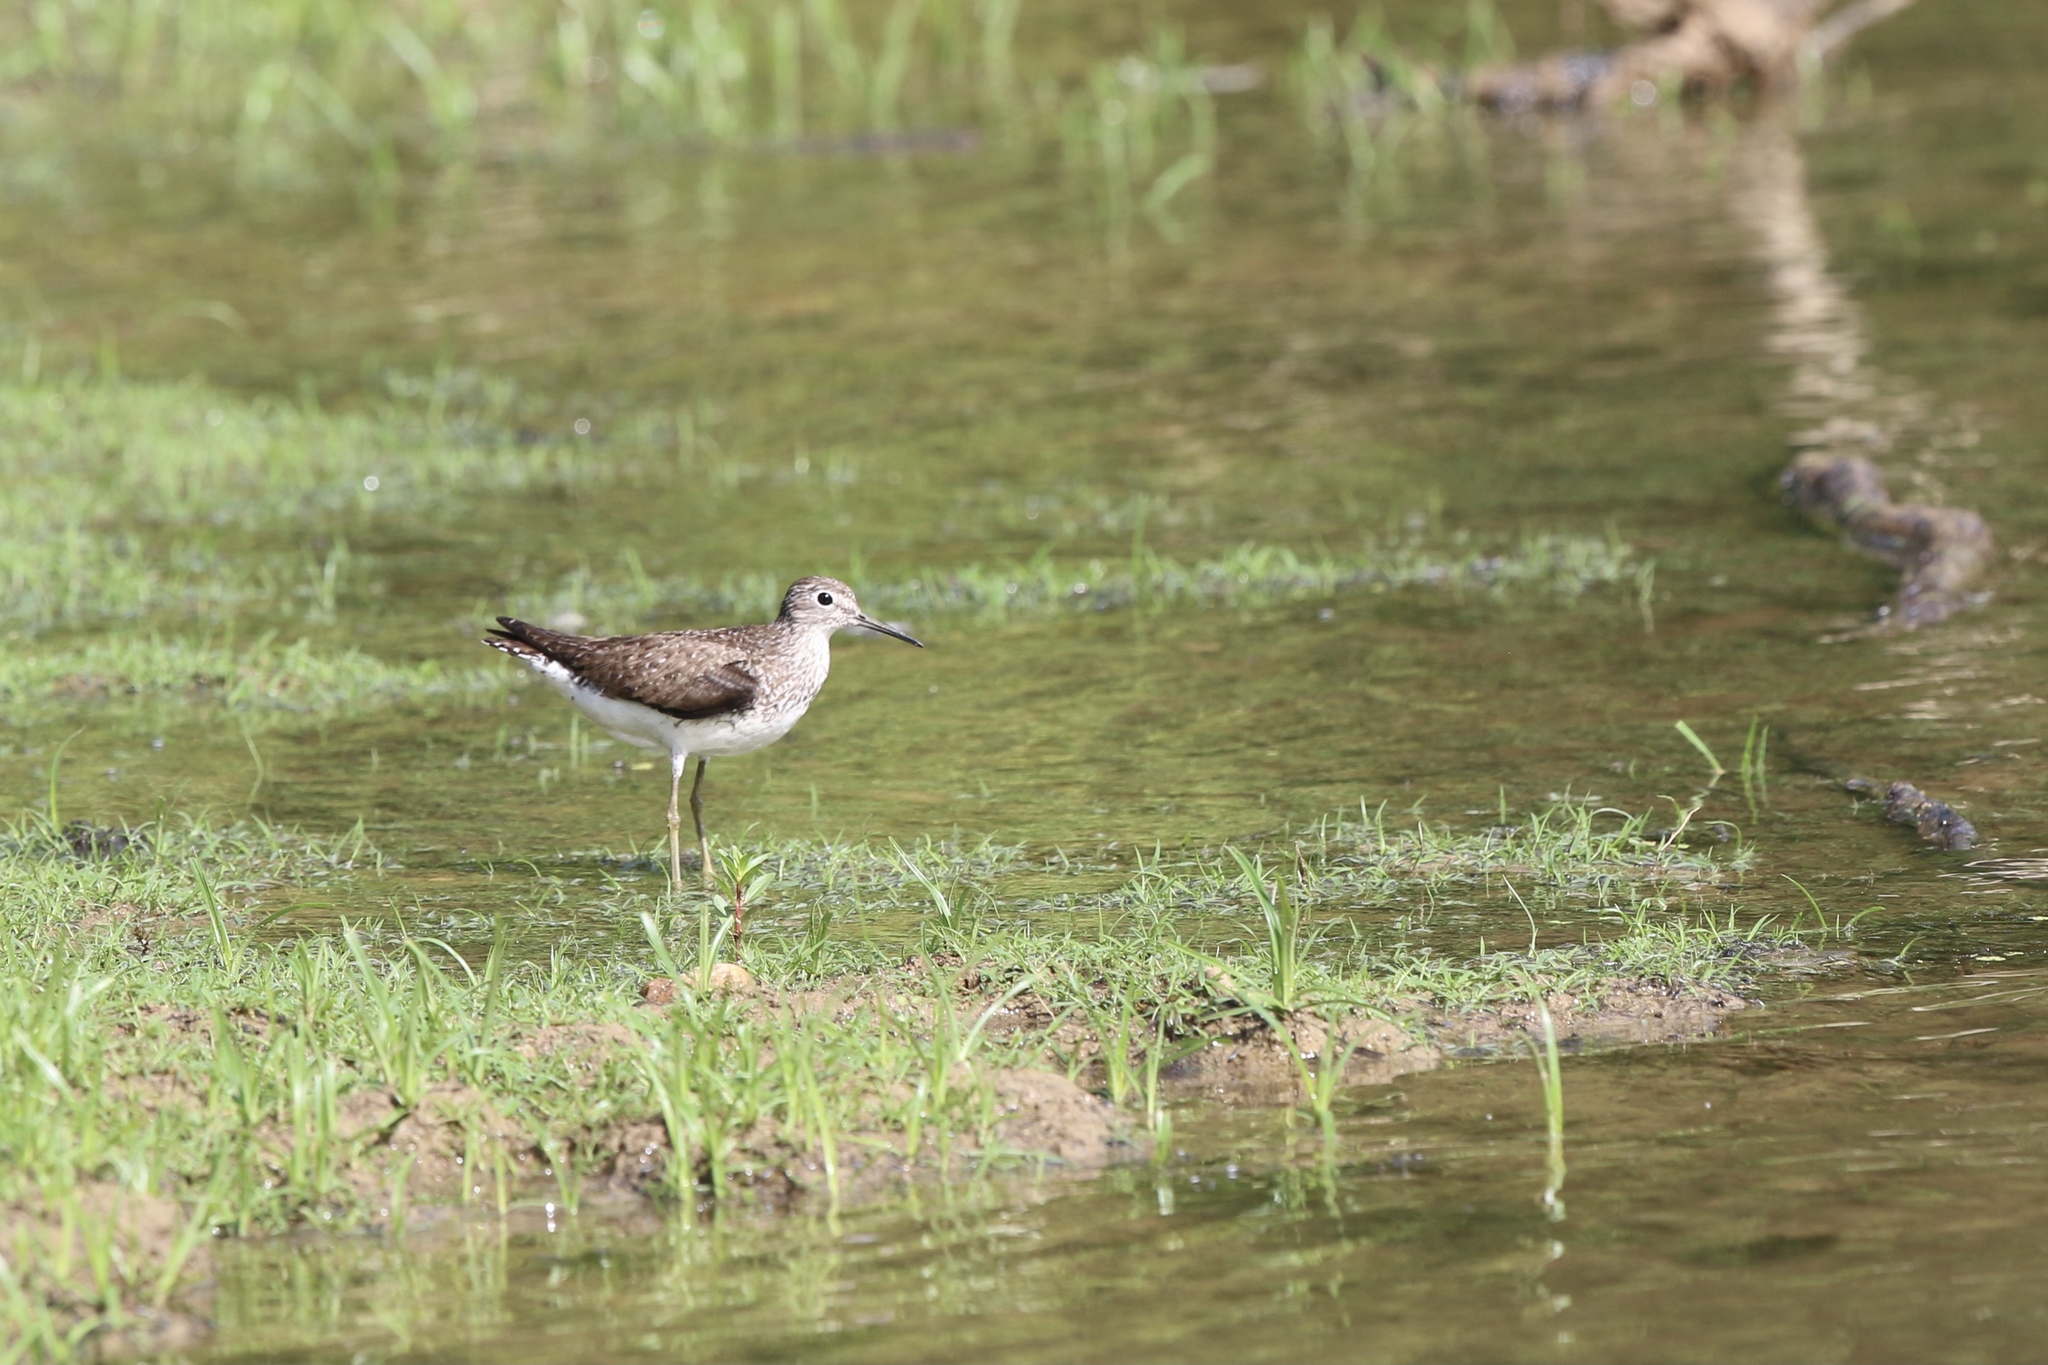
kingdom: Animalia
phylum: Chordata
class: Aves
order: Charadriiformes
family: Scolopacidae
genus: Tringa
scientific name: Tringa solitaria
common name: Solitary sandpiper
